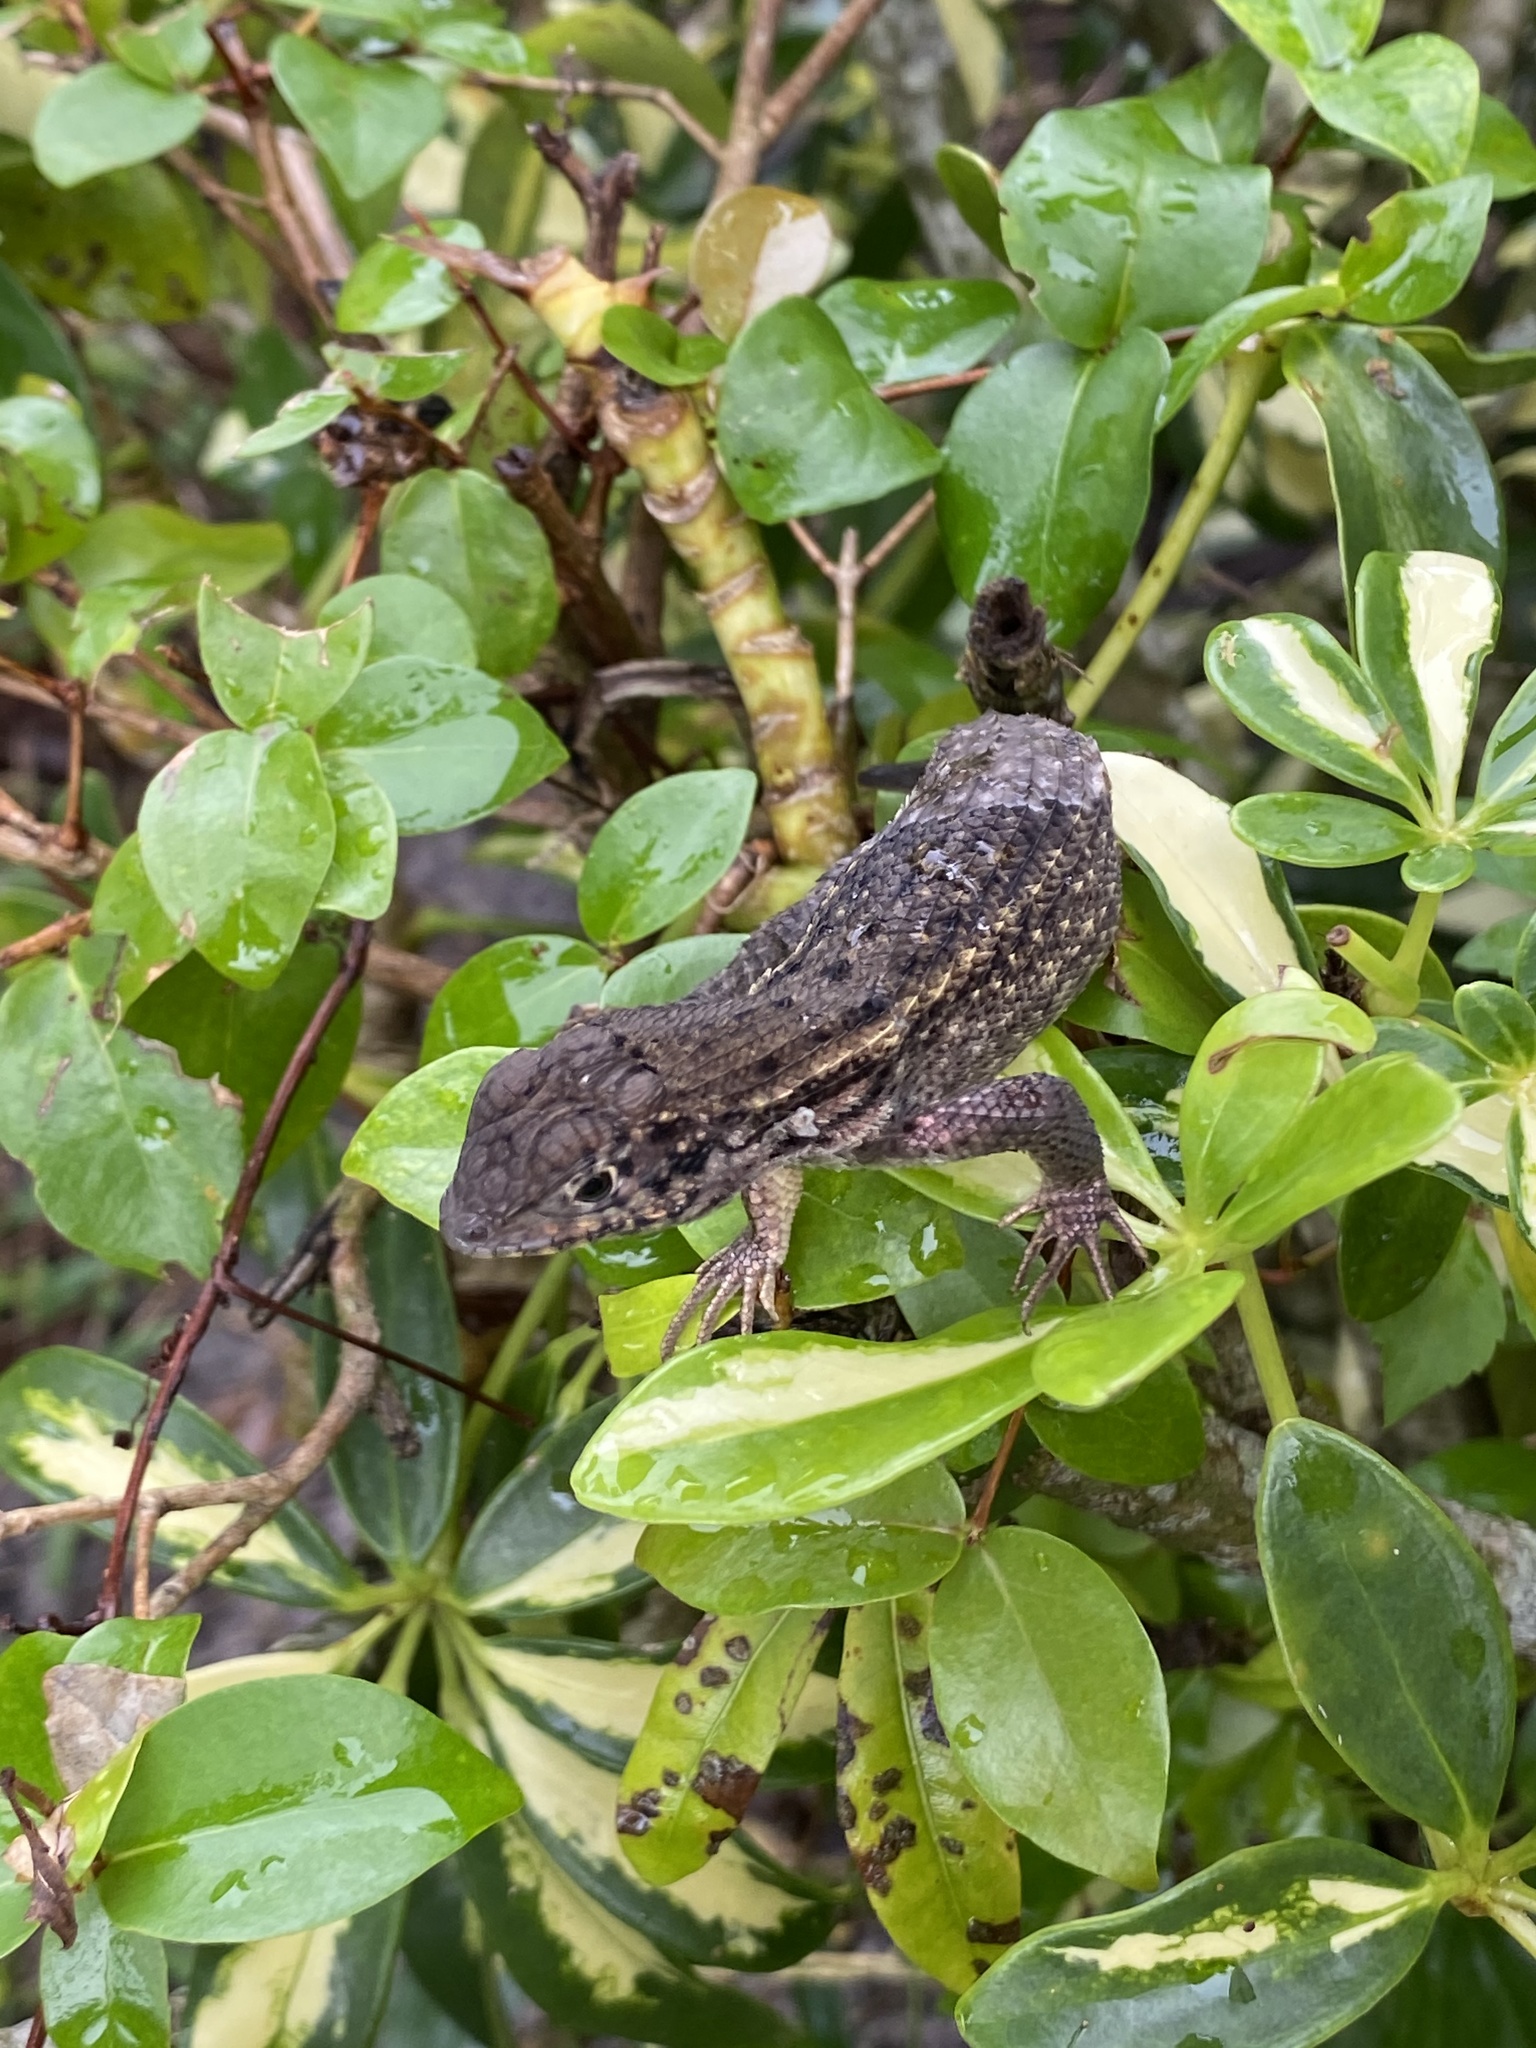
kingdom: Animalia
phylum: Chordata
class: Squamata
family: Leiocephalidae
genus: Leiocephalus
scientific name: Leiocephalus carinatus
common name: Northern curly-tailed lizard
